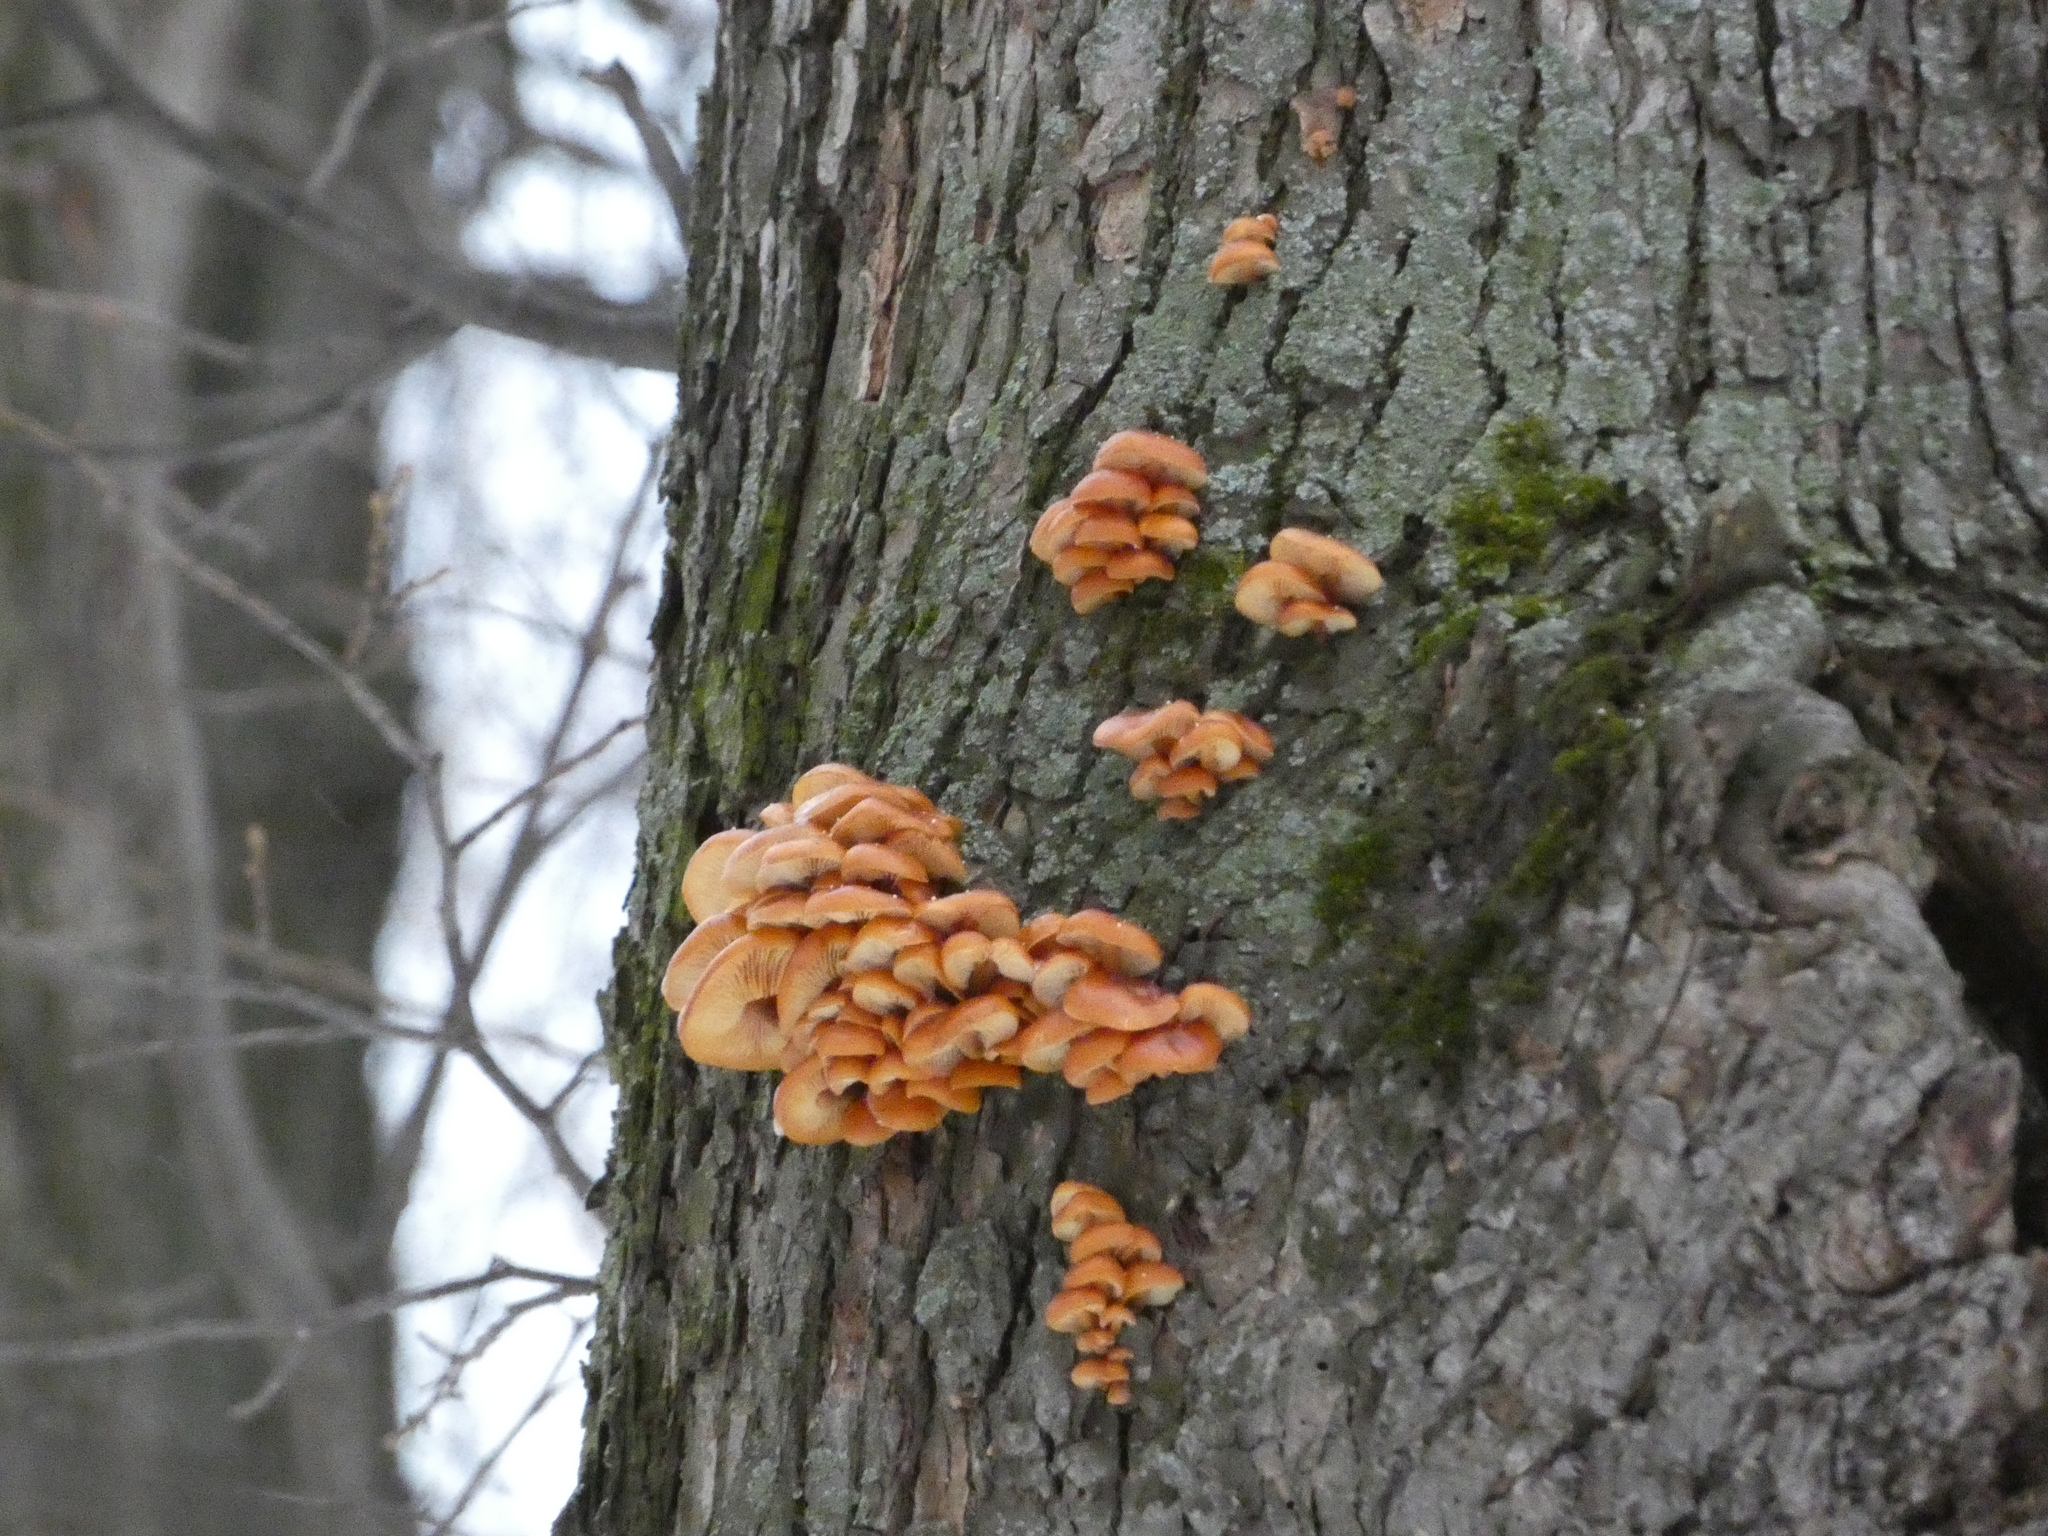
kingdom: Fungi
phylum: Basidiomycota
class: Agaricomycetes
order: Agaricales
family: Physalacriaceae
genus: Flammulina
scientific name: Flammulina
